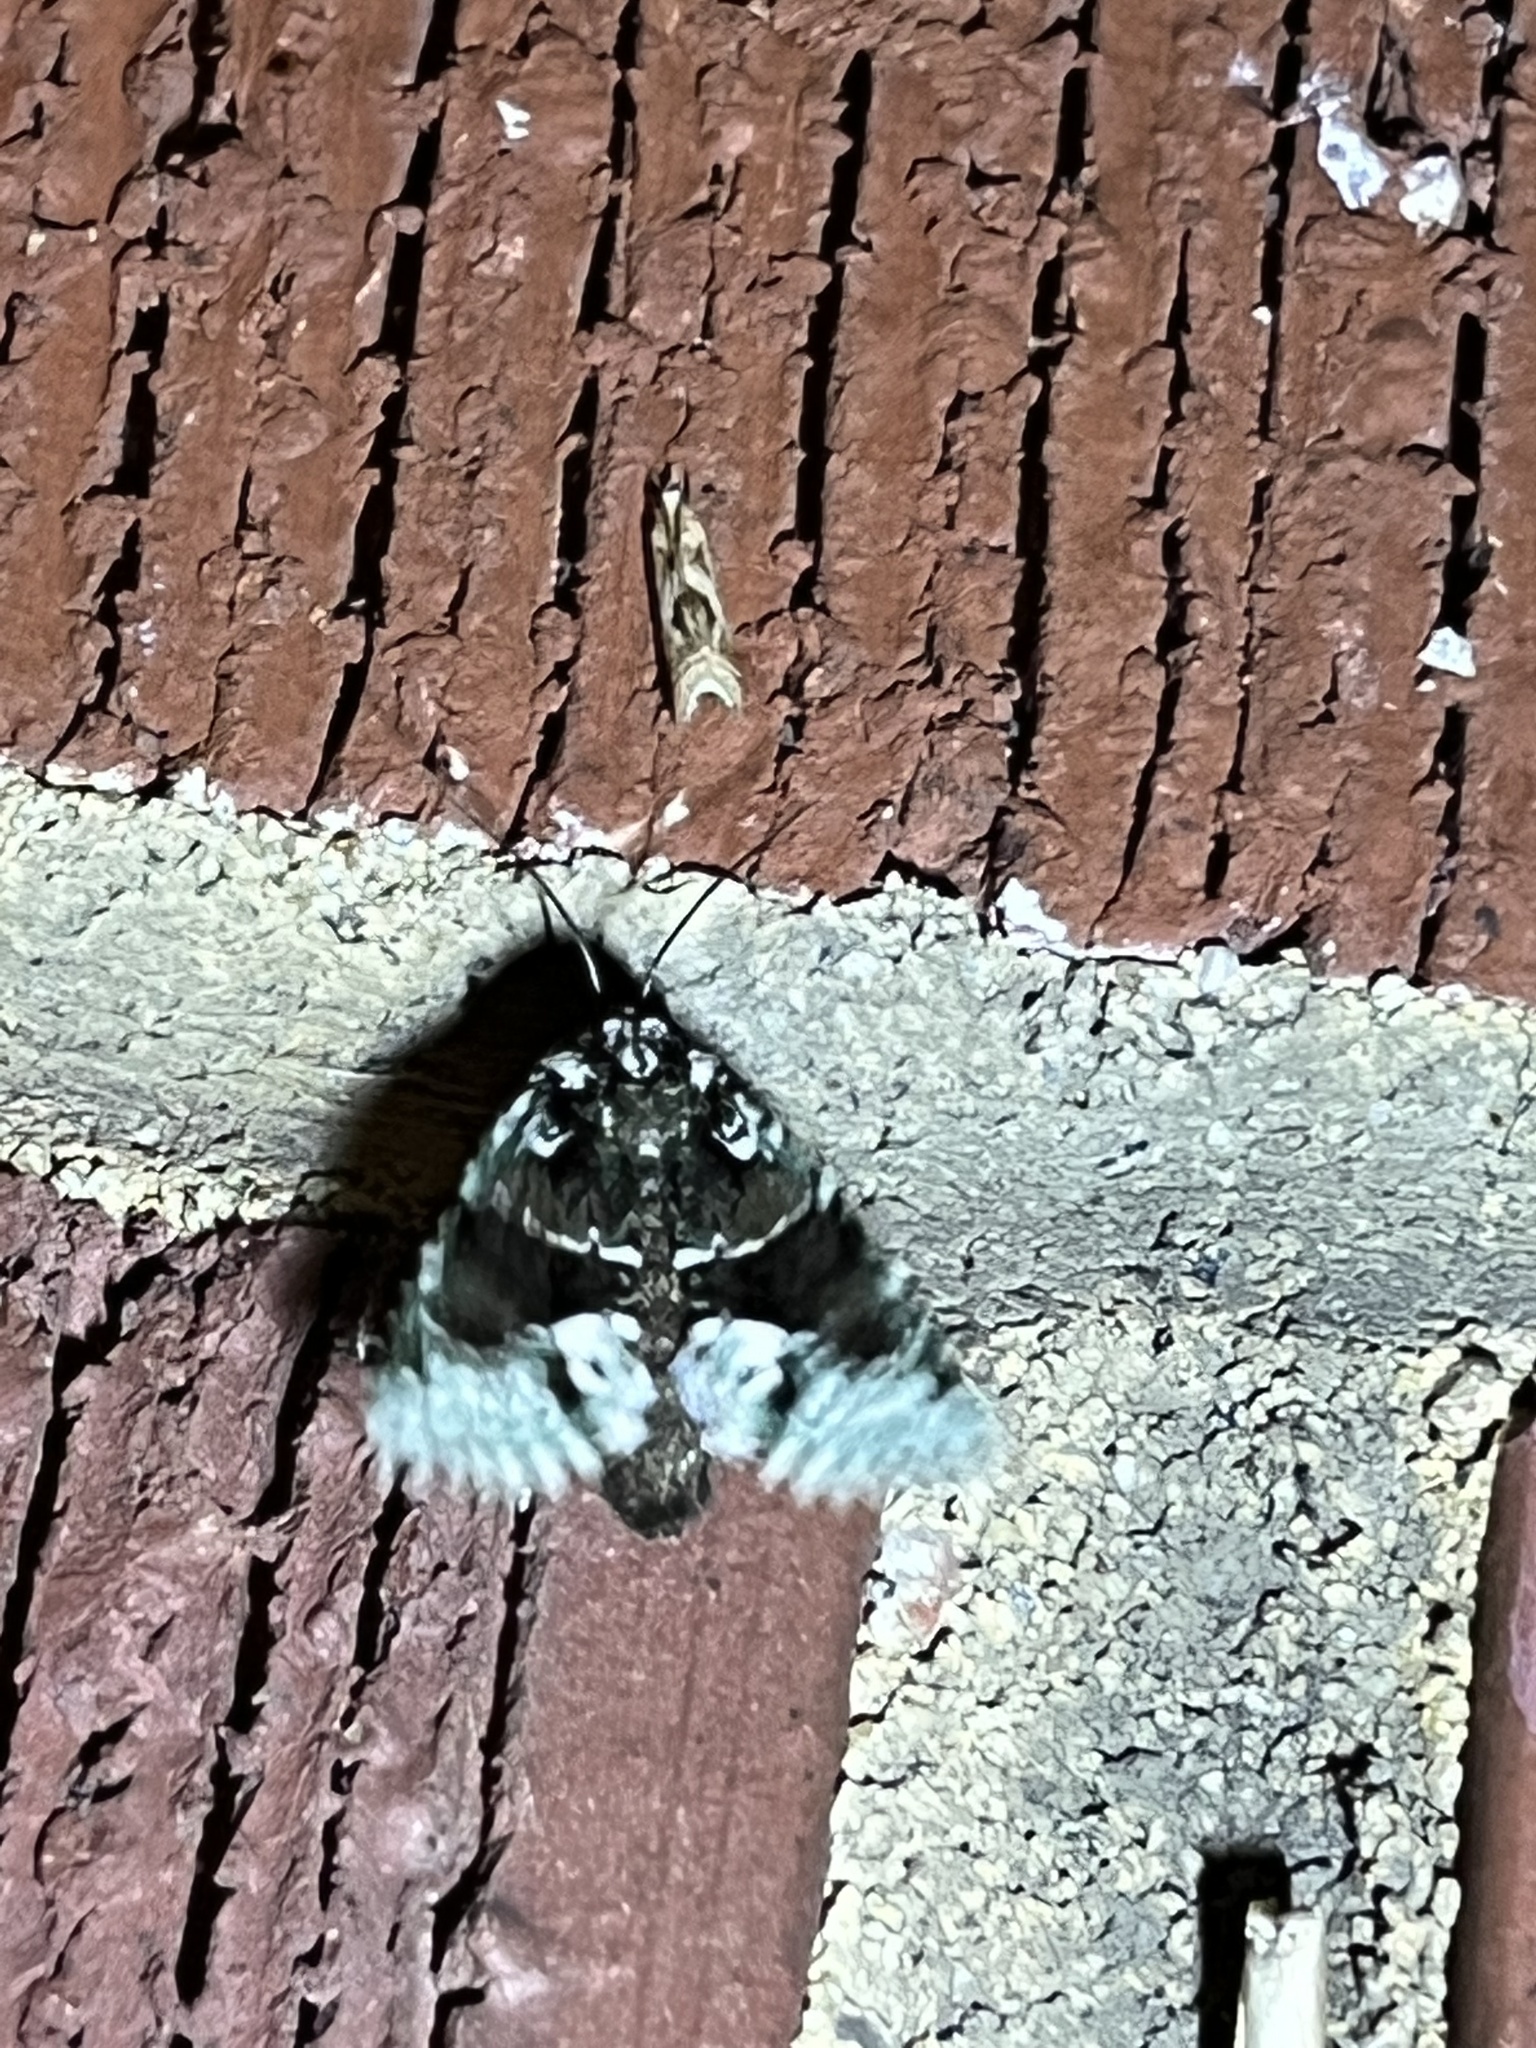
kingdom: Animalia
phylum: Arthropoda
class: Insecta
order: Lepidoptera
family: Noctuidae
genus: Lacinipolia
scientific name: Lacinipolia explicata
